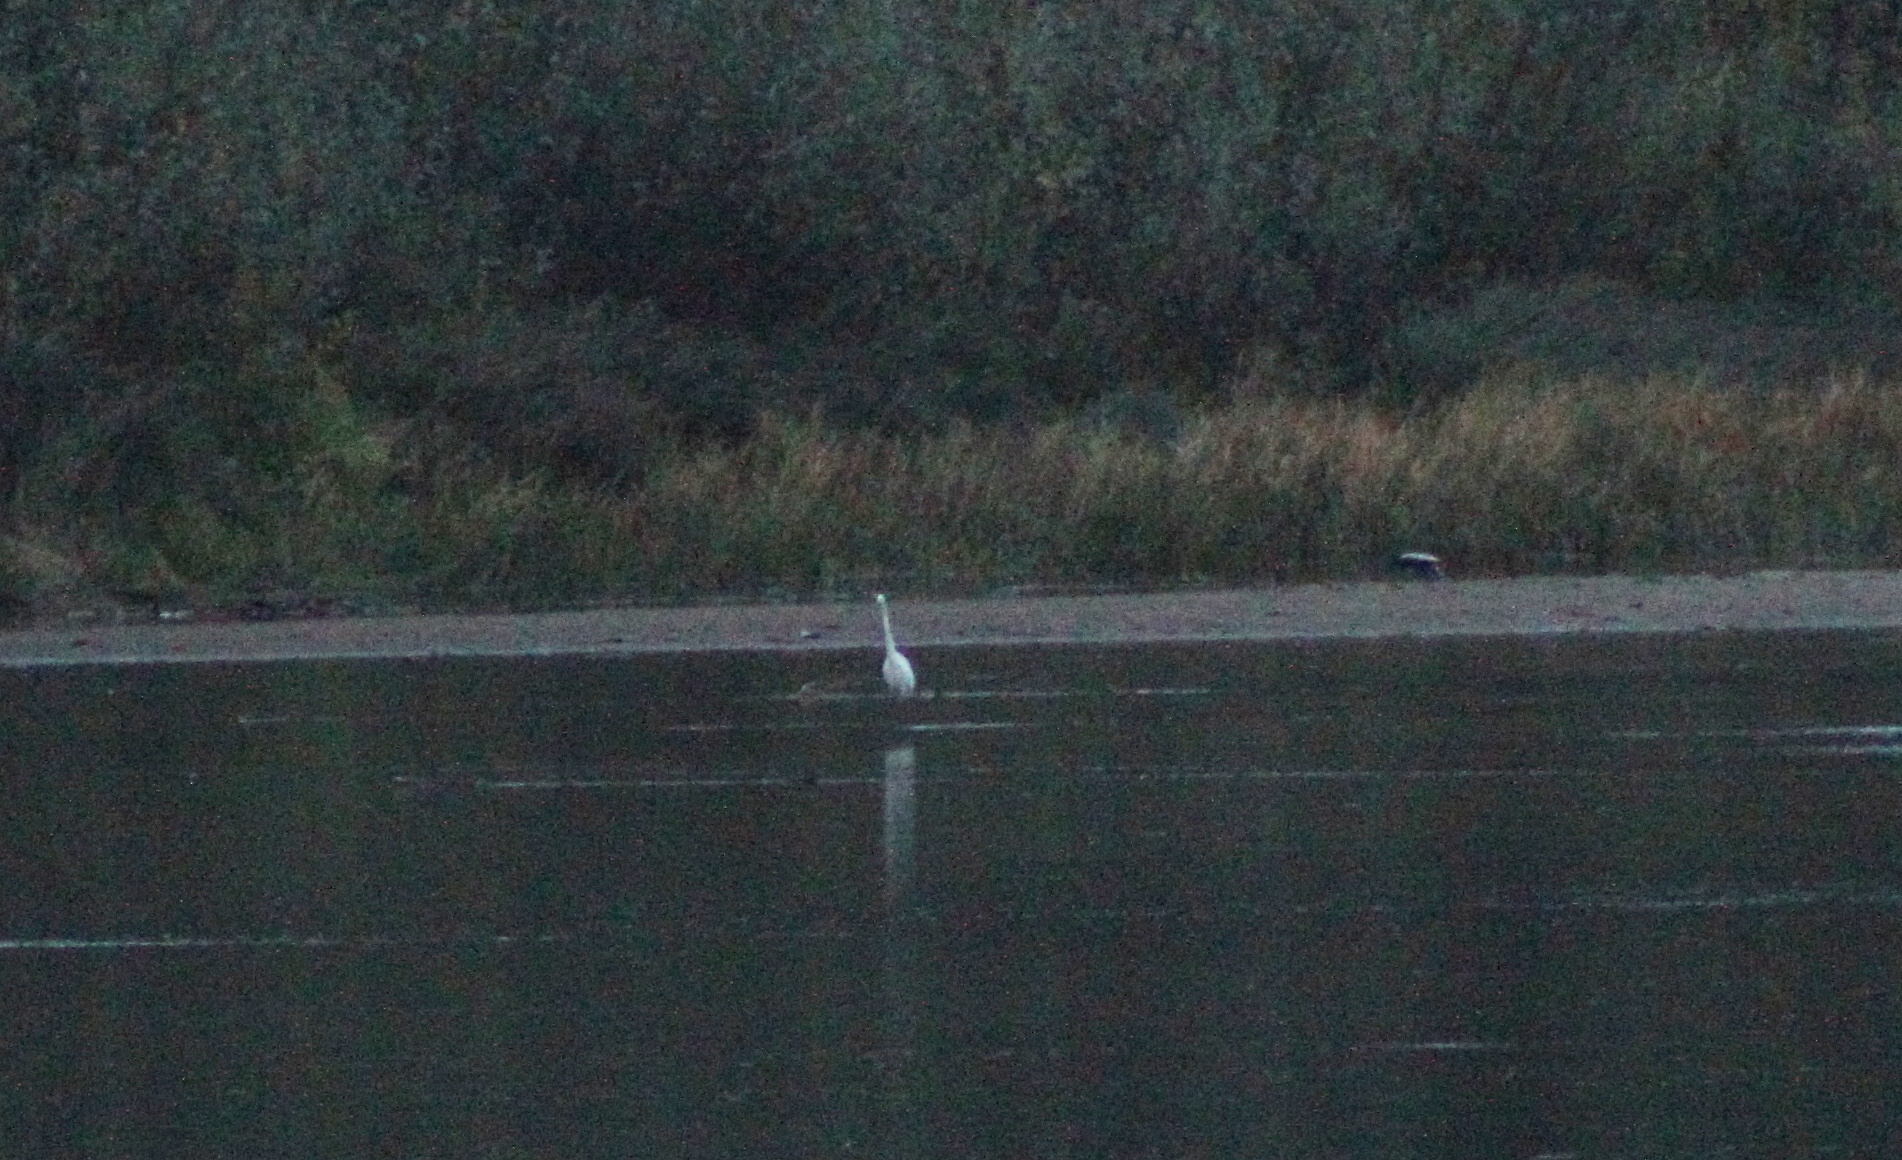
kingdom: Animalia
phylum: Chordata
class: Aves
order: Pelecaniformes
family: Ardeidae
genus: Ardea
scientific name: Ardea alba
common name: Great egret
